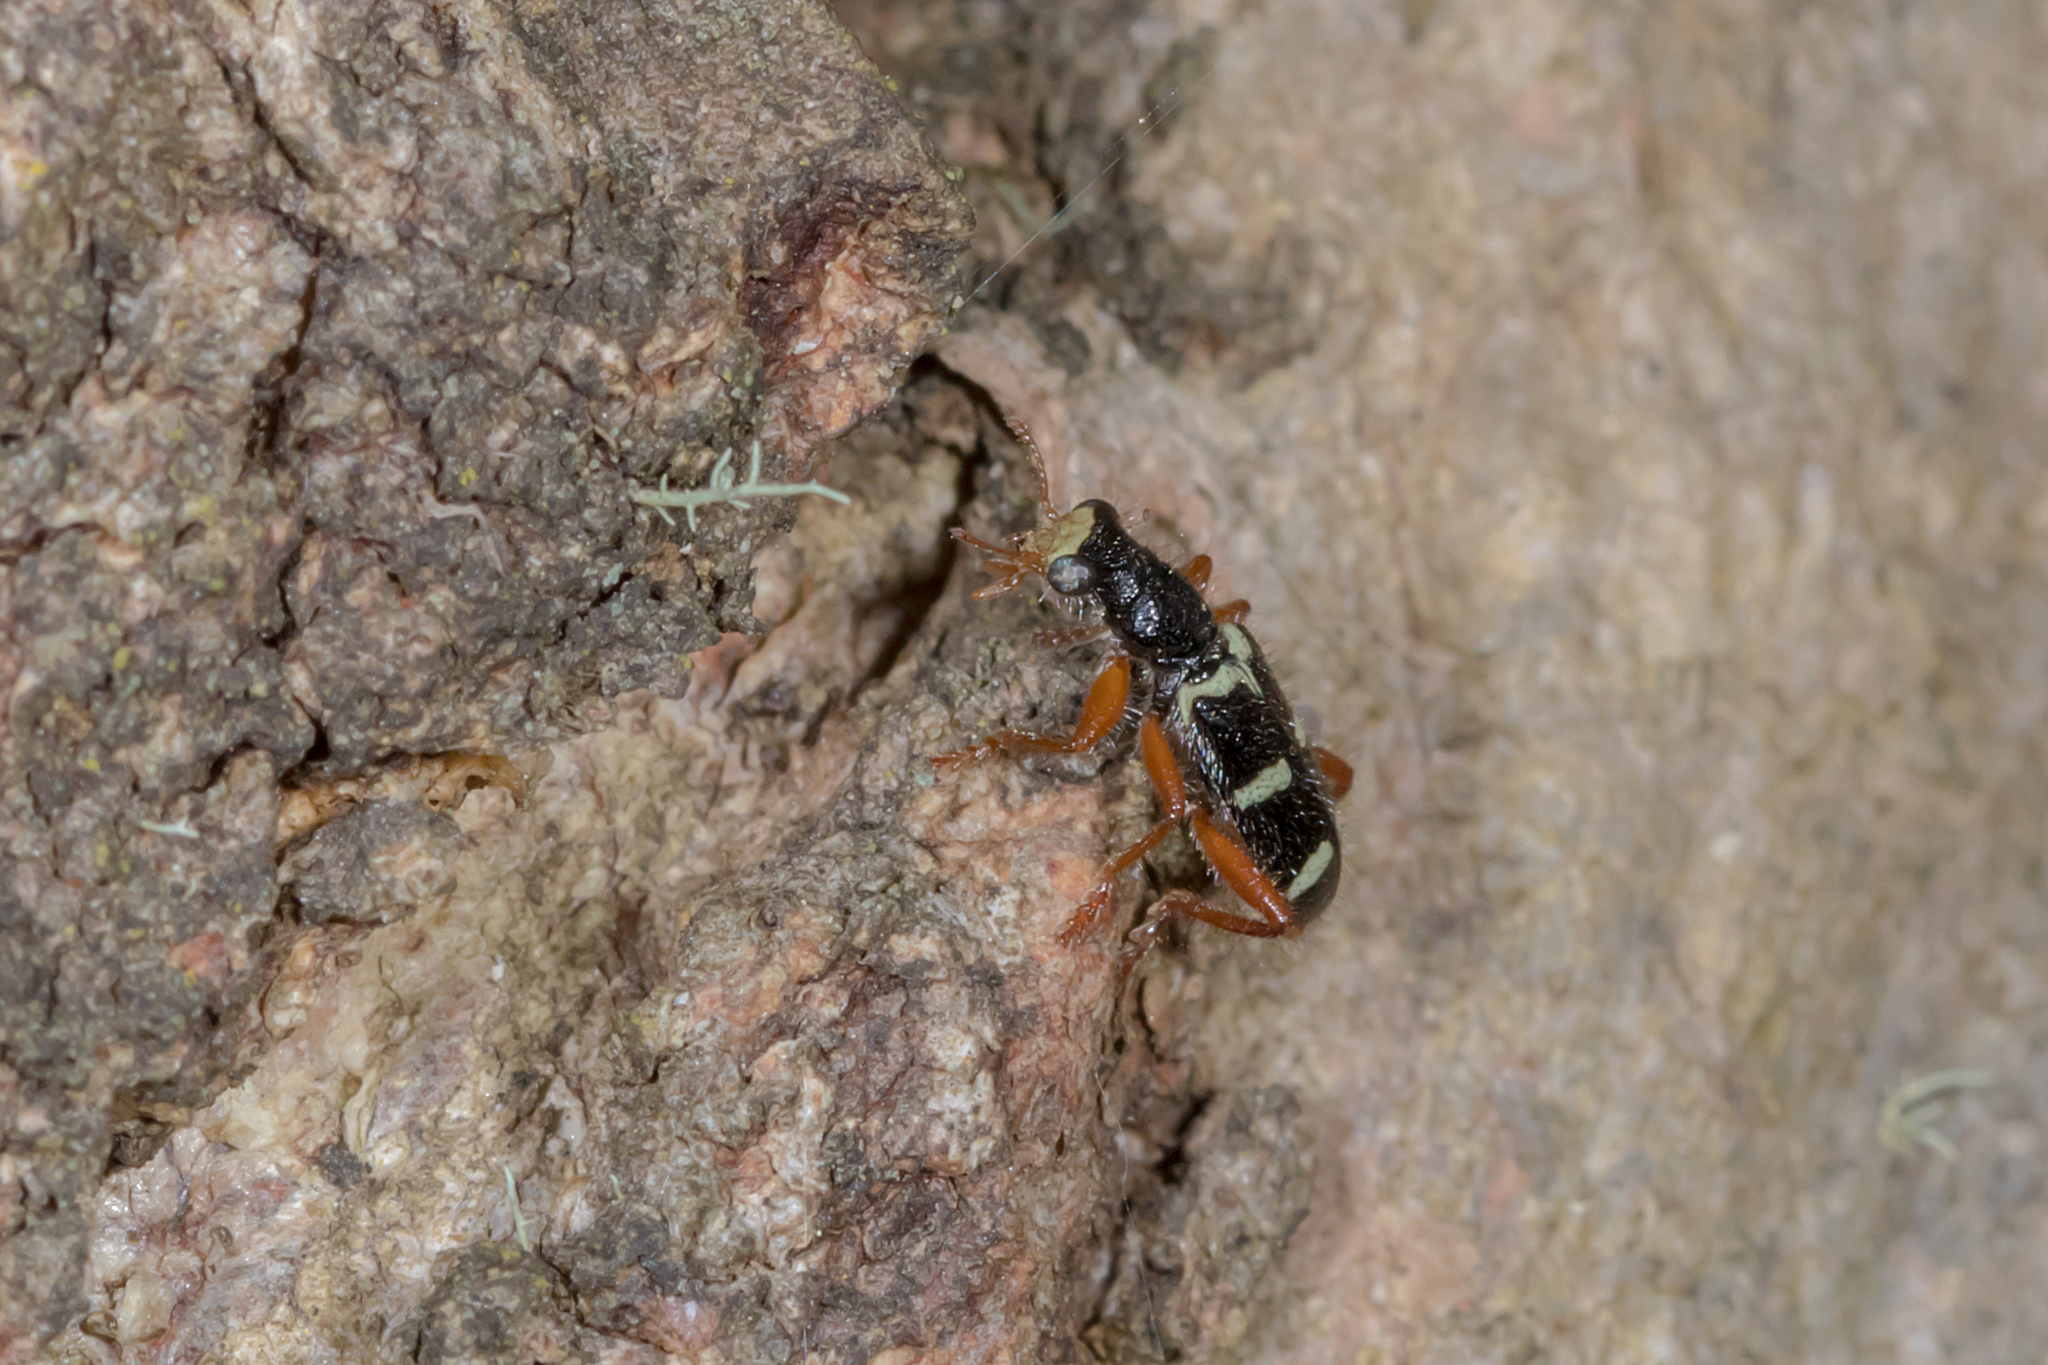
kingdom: Animalia
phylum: Arthropoda
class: Insecta
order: Coleoptera
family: Cleridae
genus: Lemidia
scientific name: Lemidia nitens
